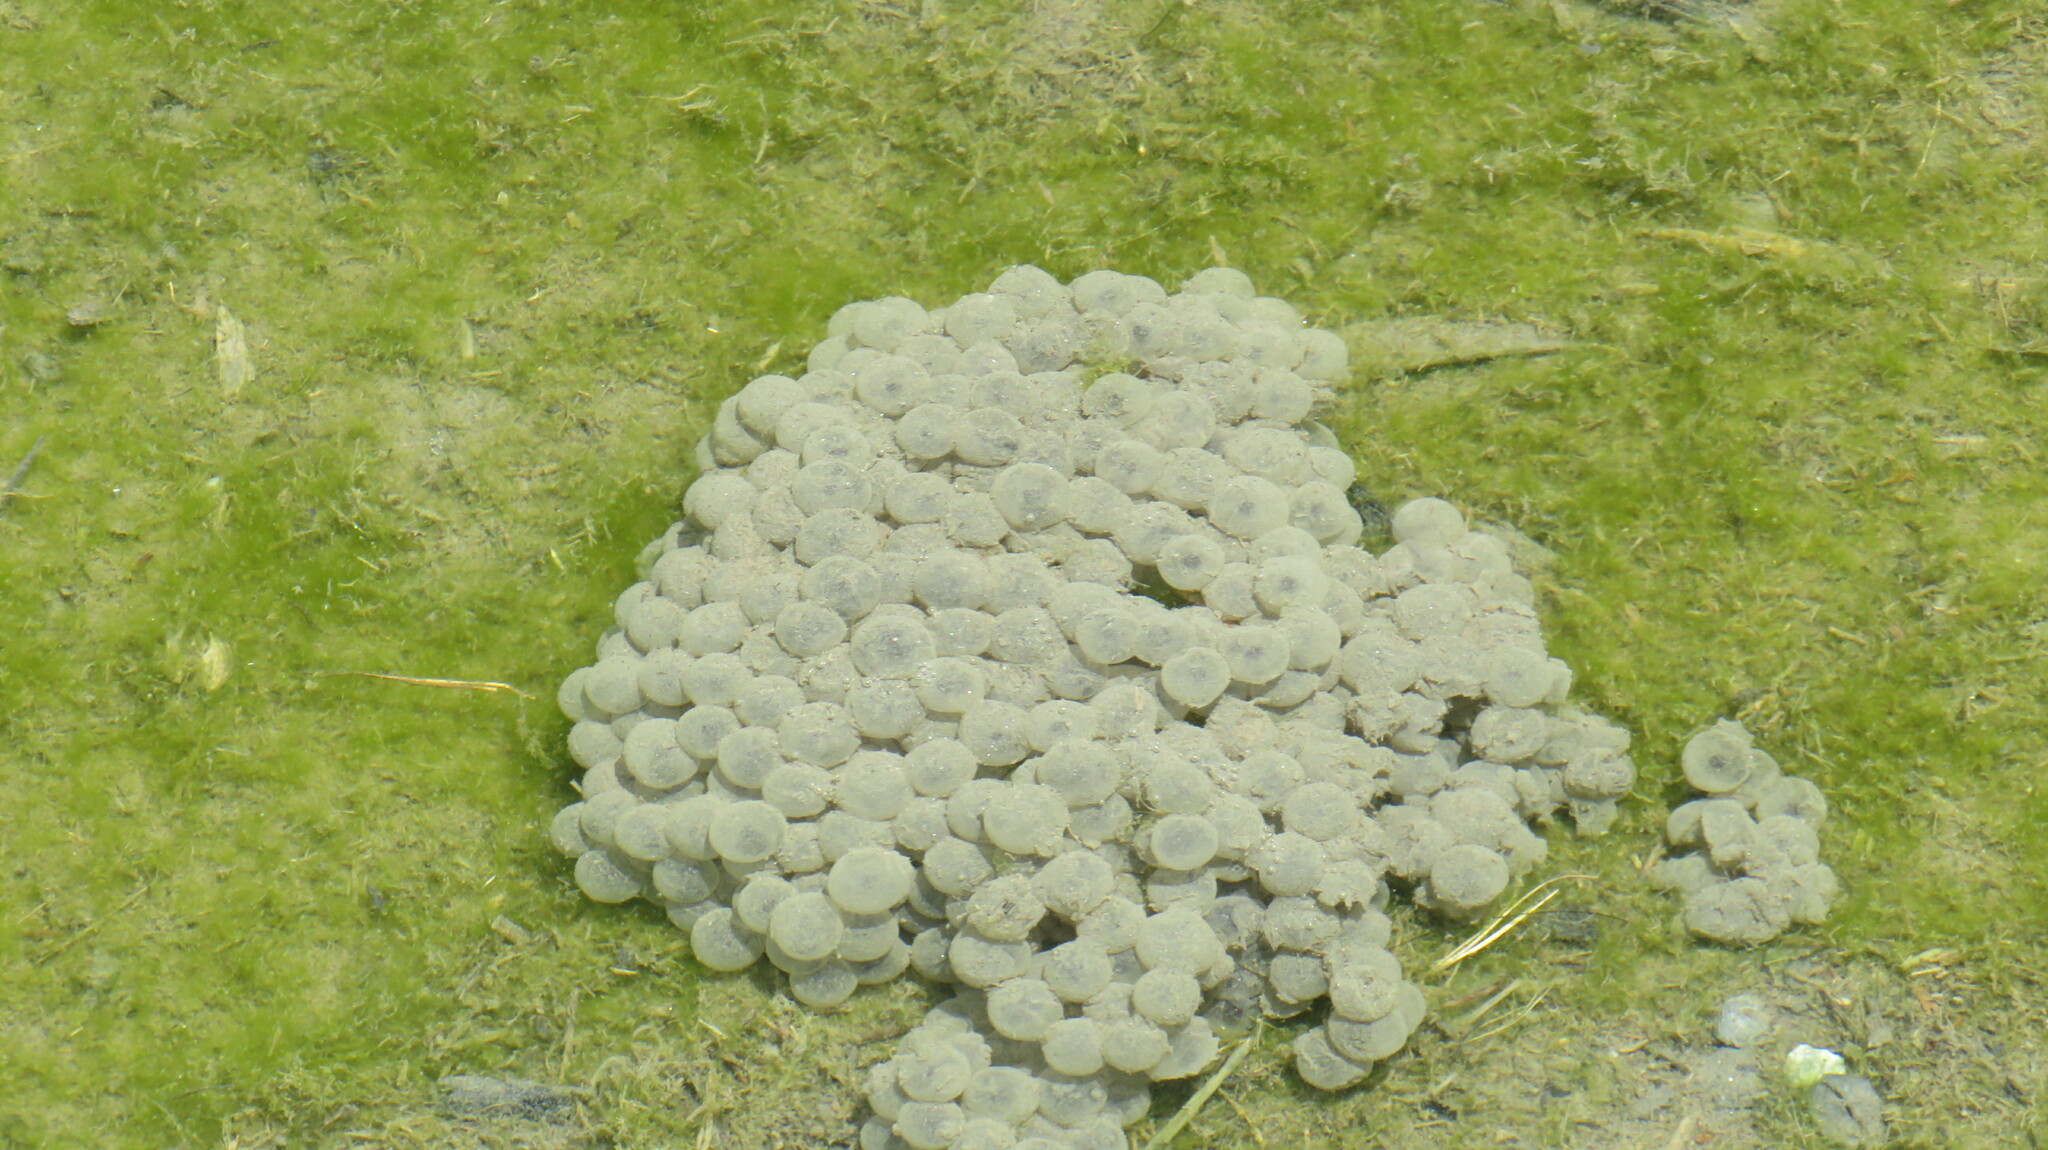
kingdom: Animalia
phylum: Chordata
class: Amphibia
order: Anura
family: Bufonidae
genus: Bufotes
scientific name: Bufotes viridis
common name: European green toad
